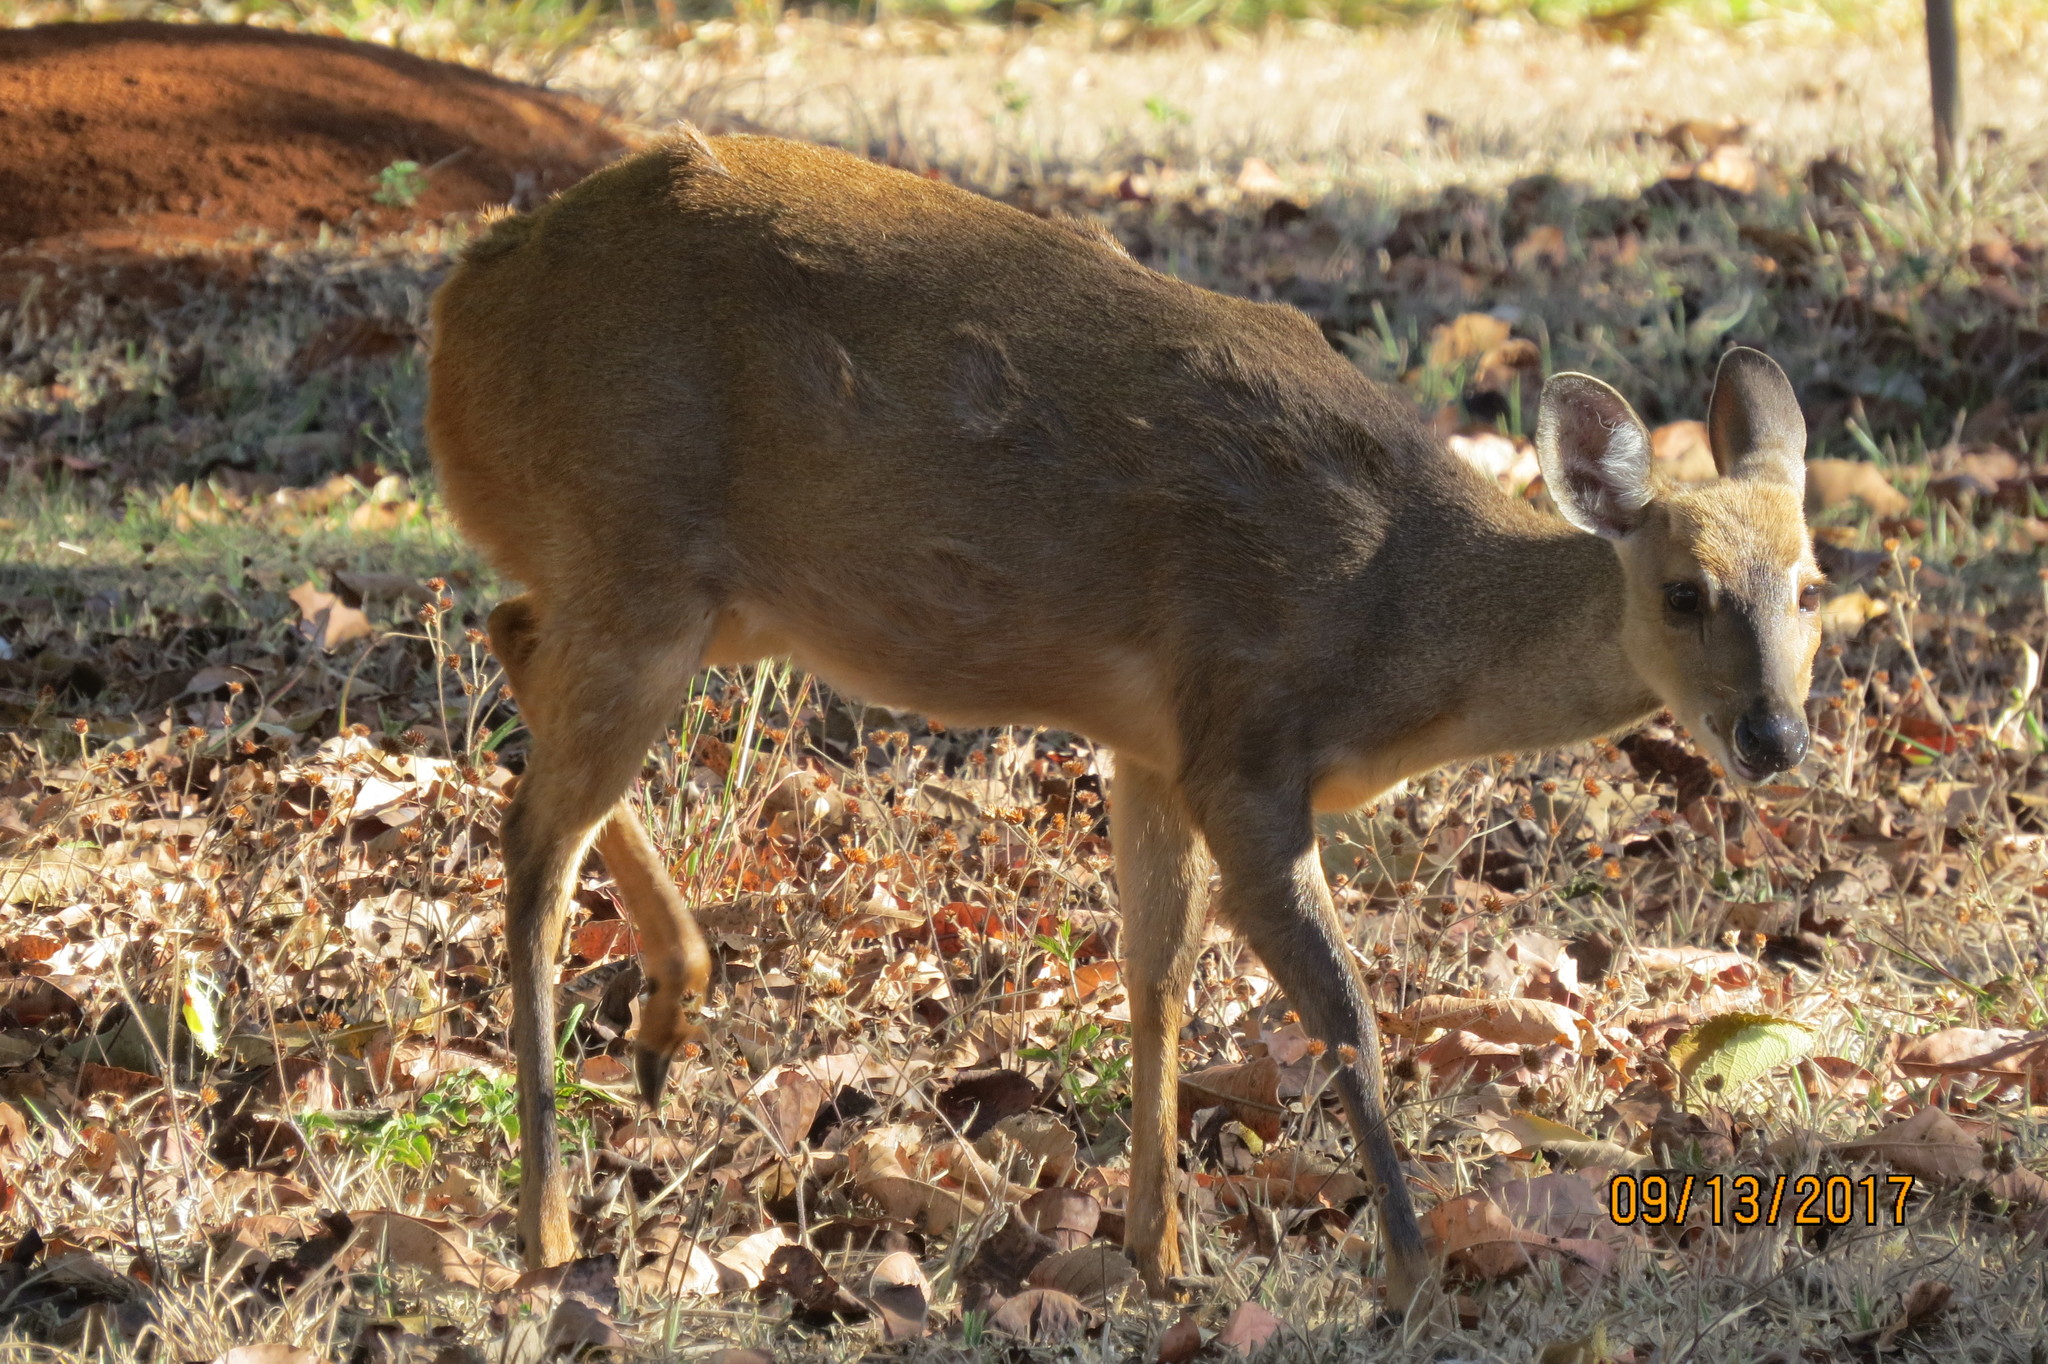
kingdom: Animalia
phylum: Chordata
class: Mammalia
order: Artiodactyla
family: Cervidae
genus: Mazama
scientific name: Mazama gouazoubira
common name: Gray brocket
